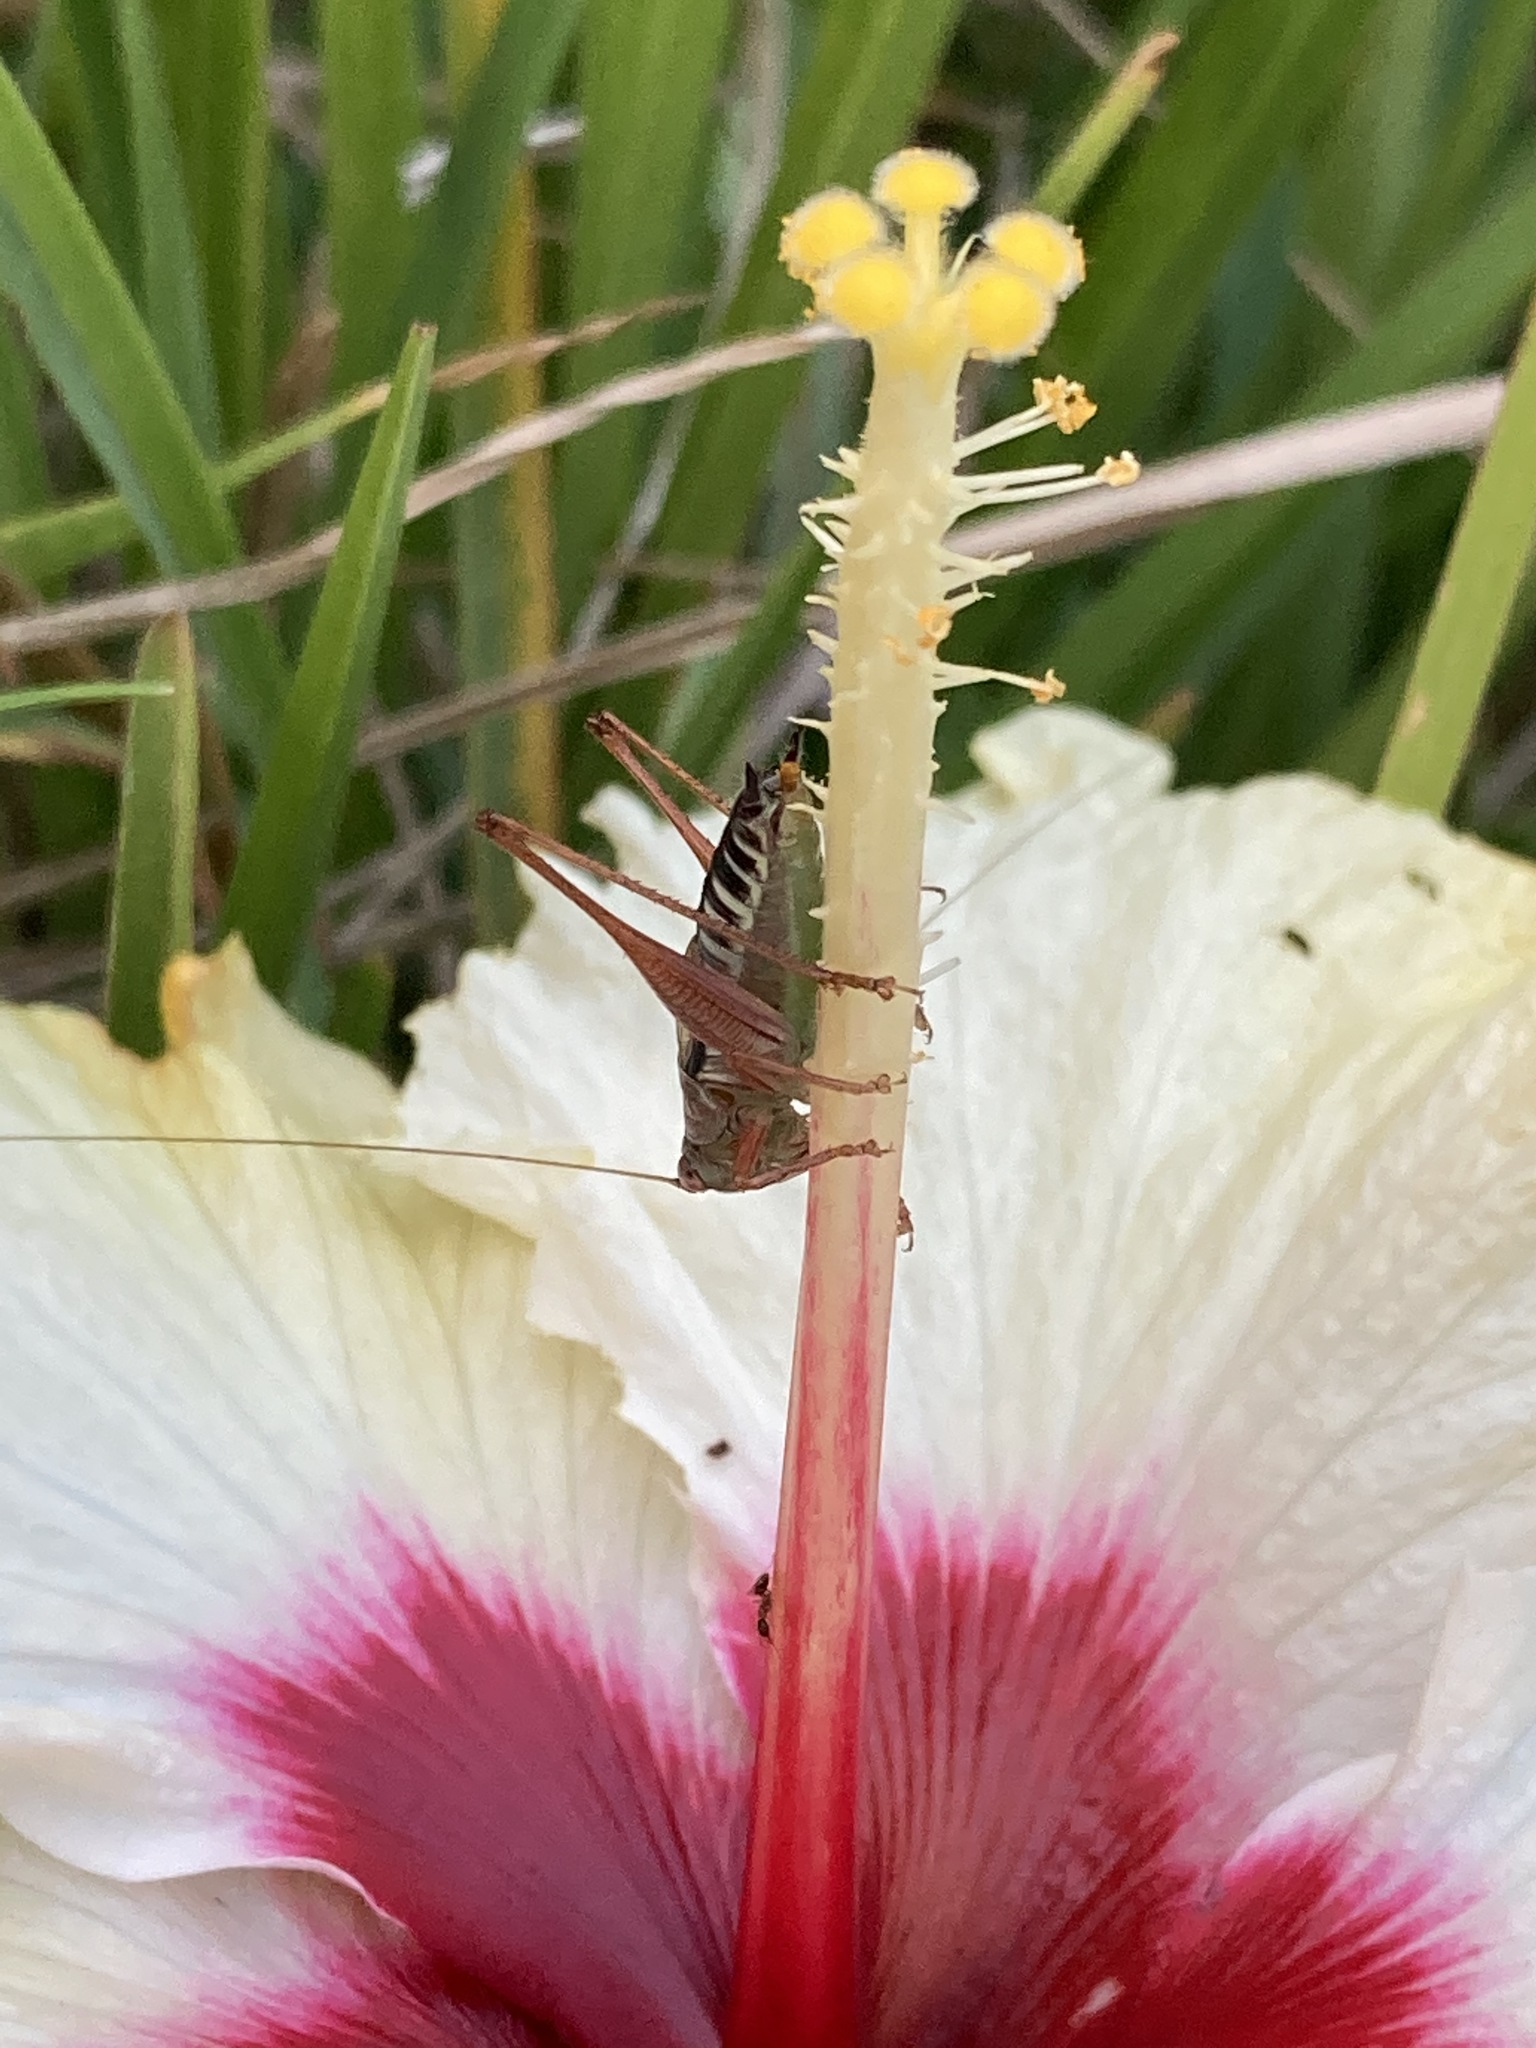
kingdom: Animalia
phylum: Arthropoda
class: Insecta
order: Orthoptera
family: Tettigoniidae
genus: Conocephalus
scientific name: Conocephalus semivittatus
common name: Blackish meadow katydid
